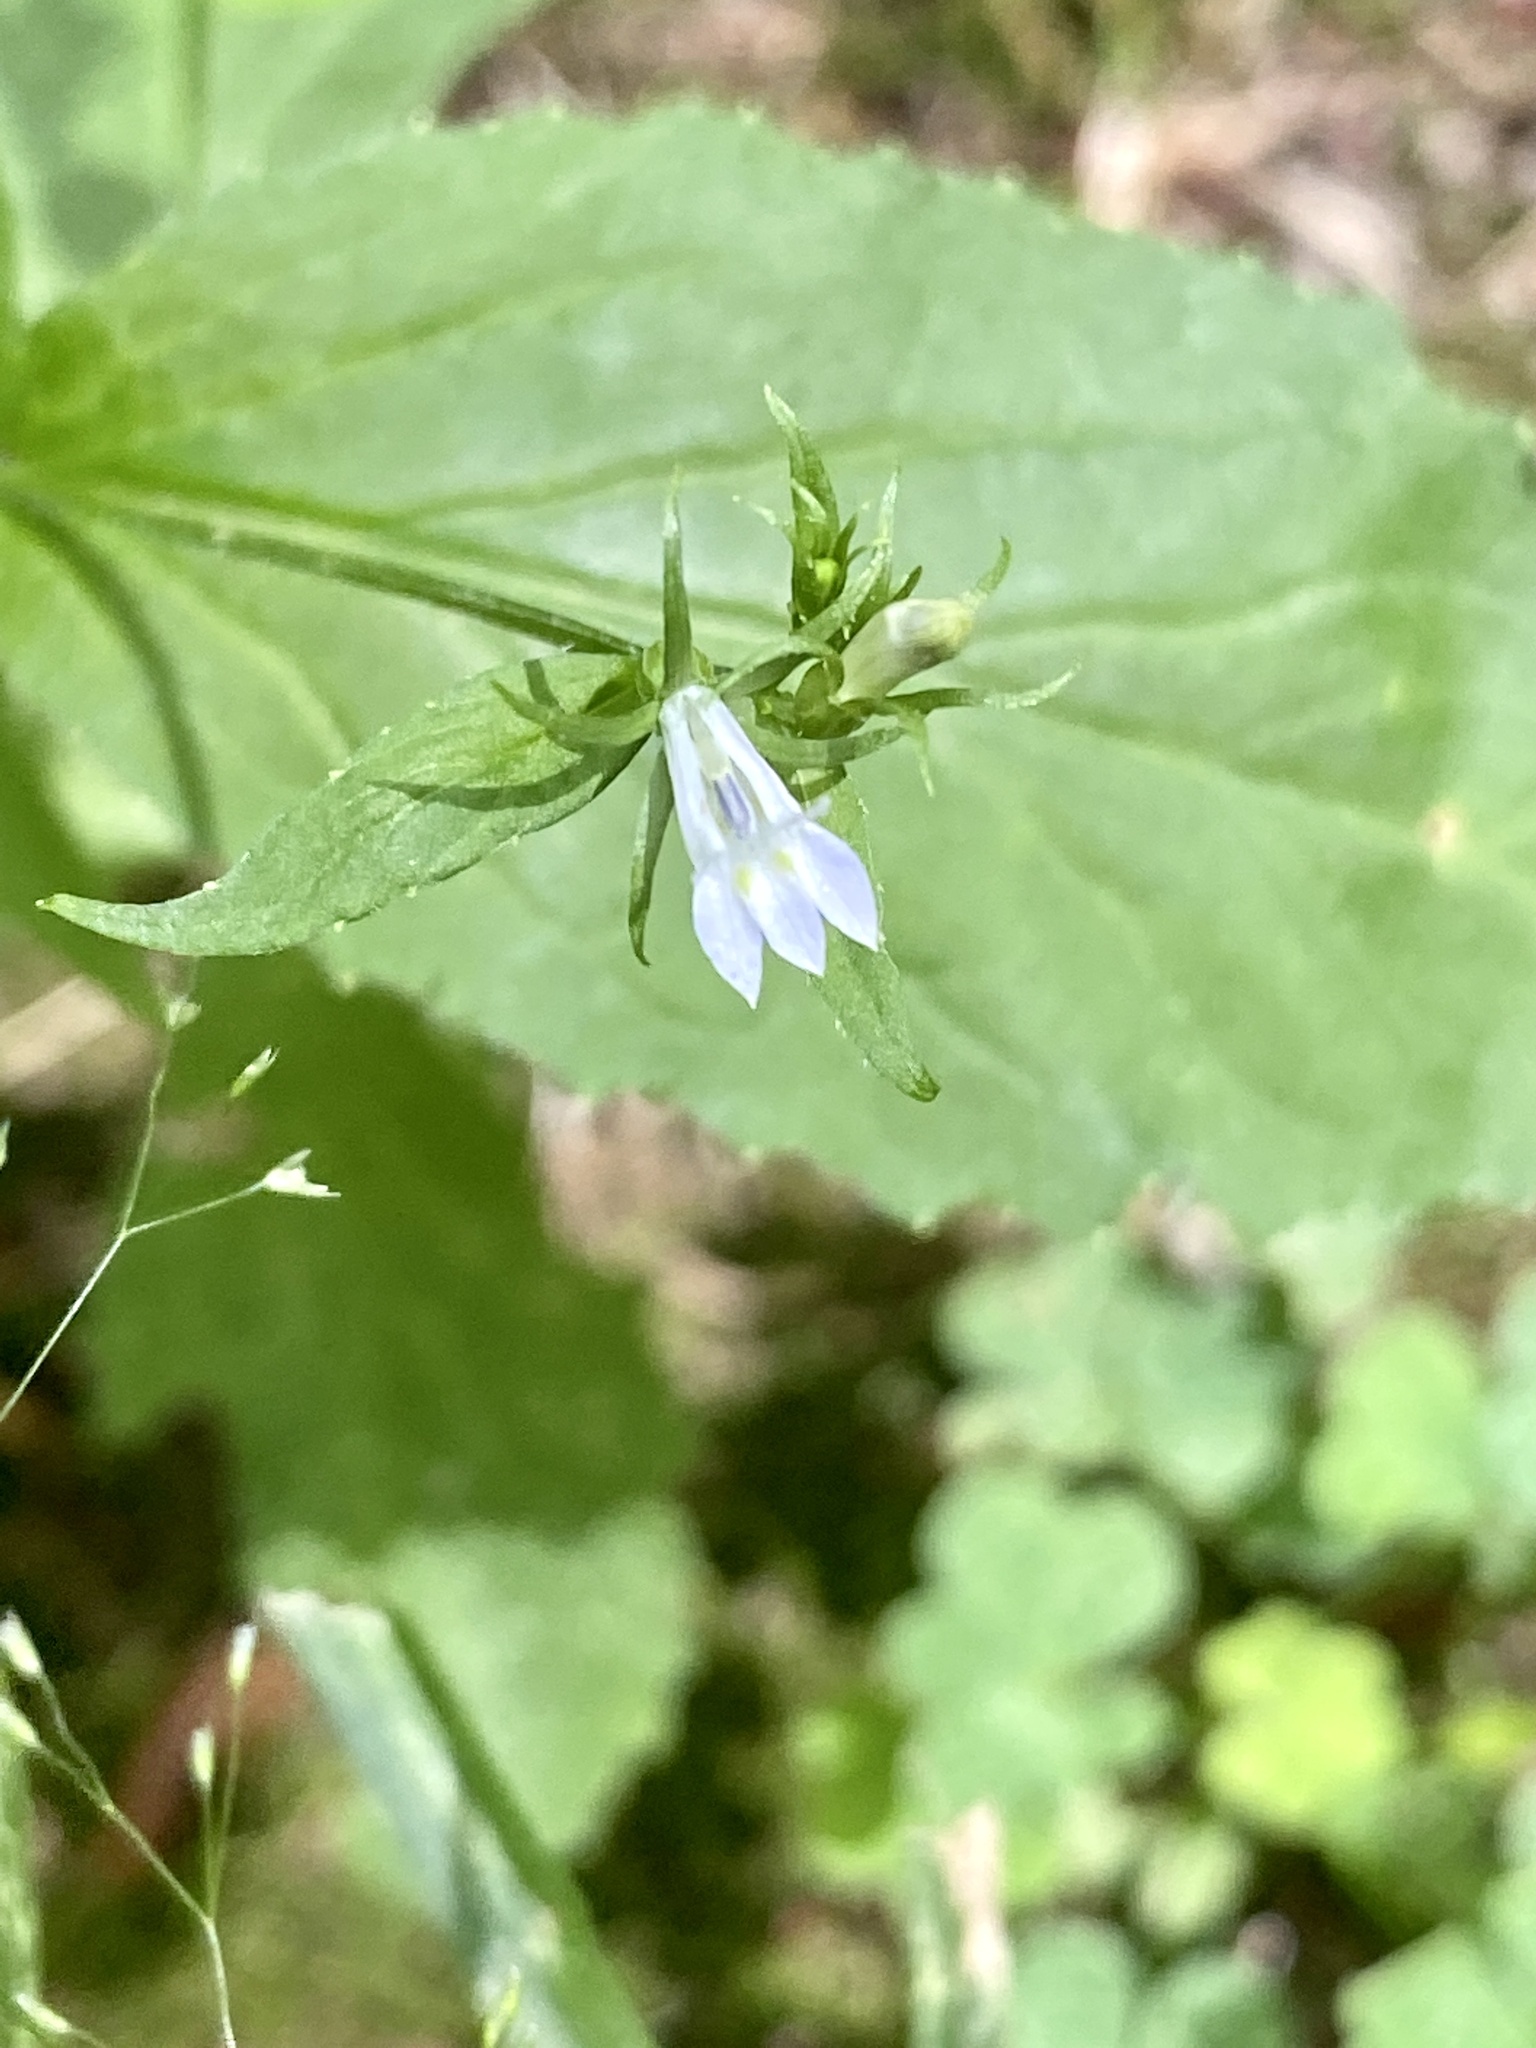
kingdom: Plantae
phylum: Tracheophyta
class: Magnoliopsida
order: Asterales
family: Campanulaceae
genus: Lobelia
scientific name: Lobelia inflata
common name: Indian tobacco
